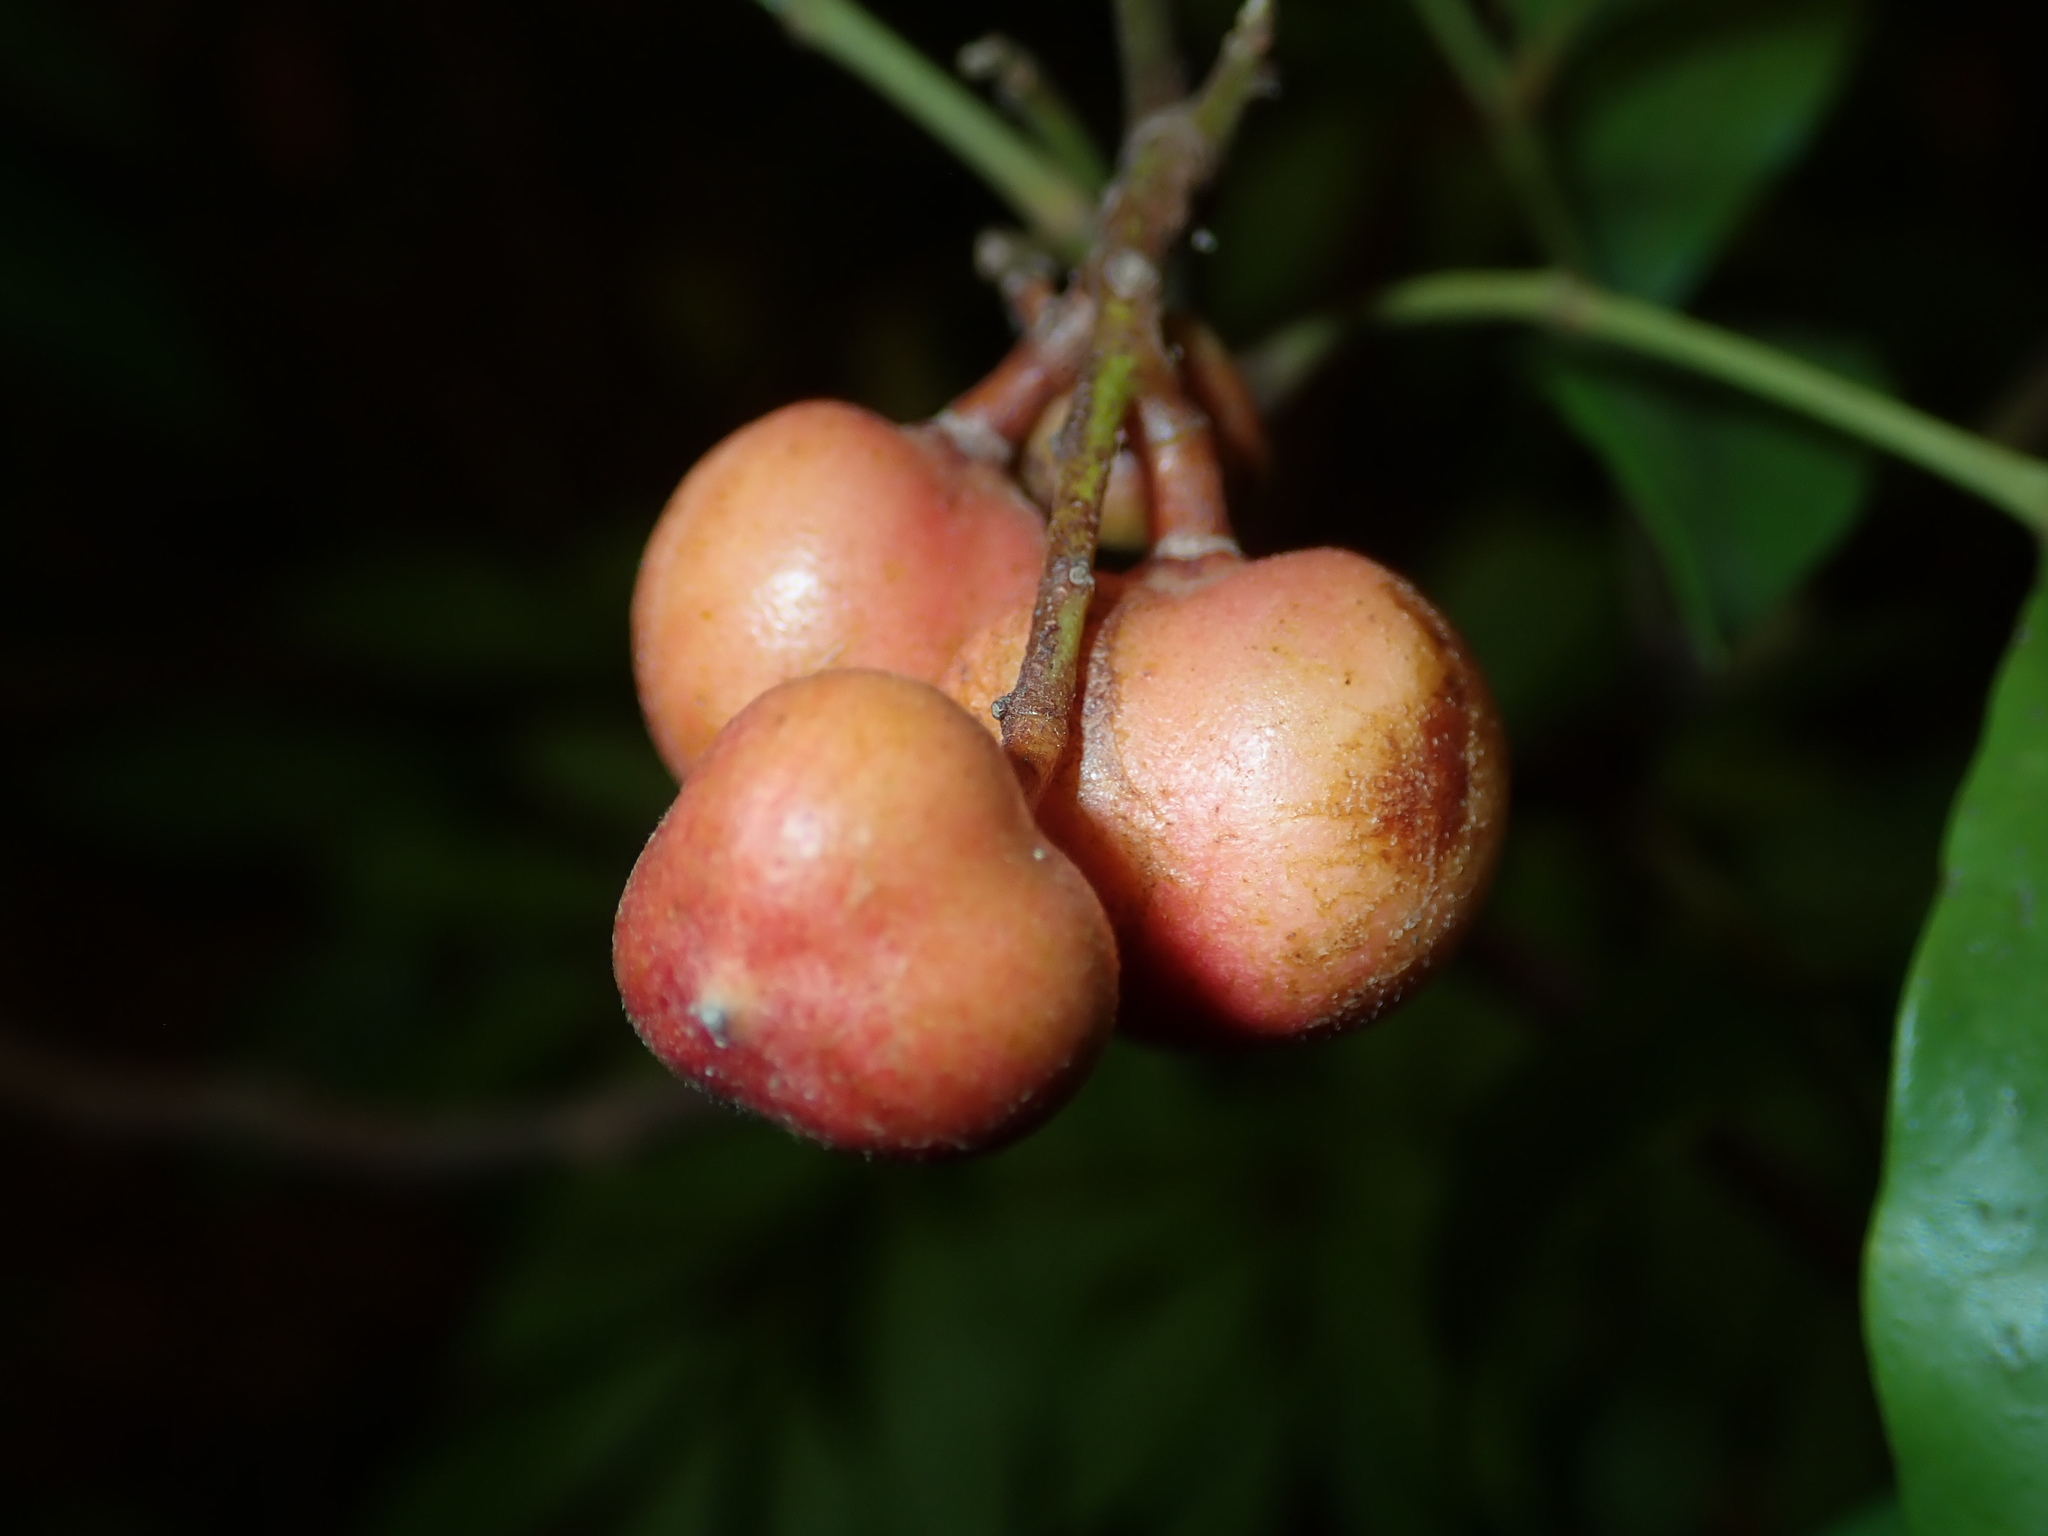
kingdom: Plantae
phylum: Tracheophyta
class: Magnoliopsida
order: Sapindales
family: Meliaceae
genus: Synoum
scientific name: Synoum glandulosum
